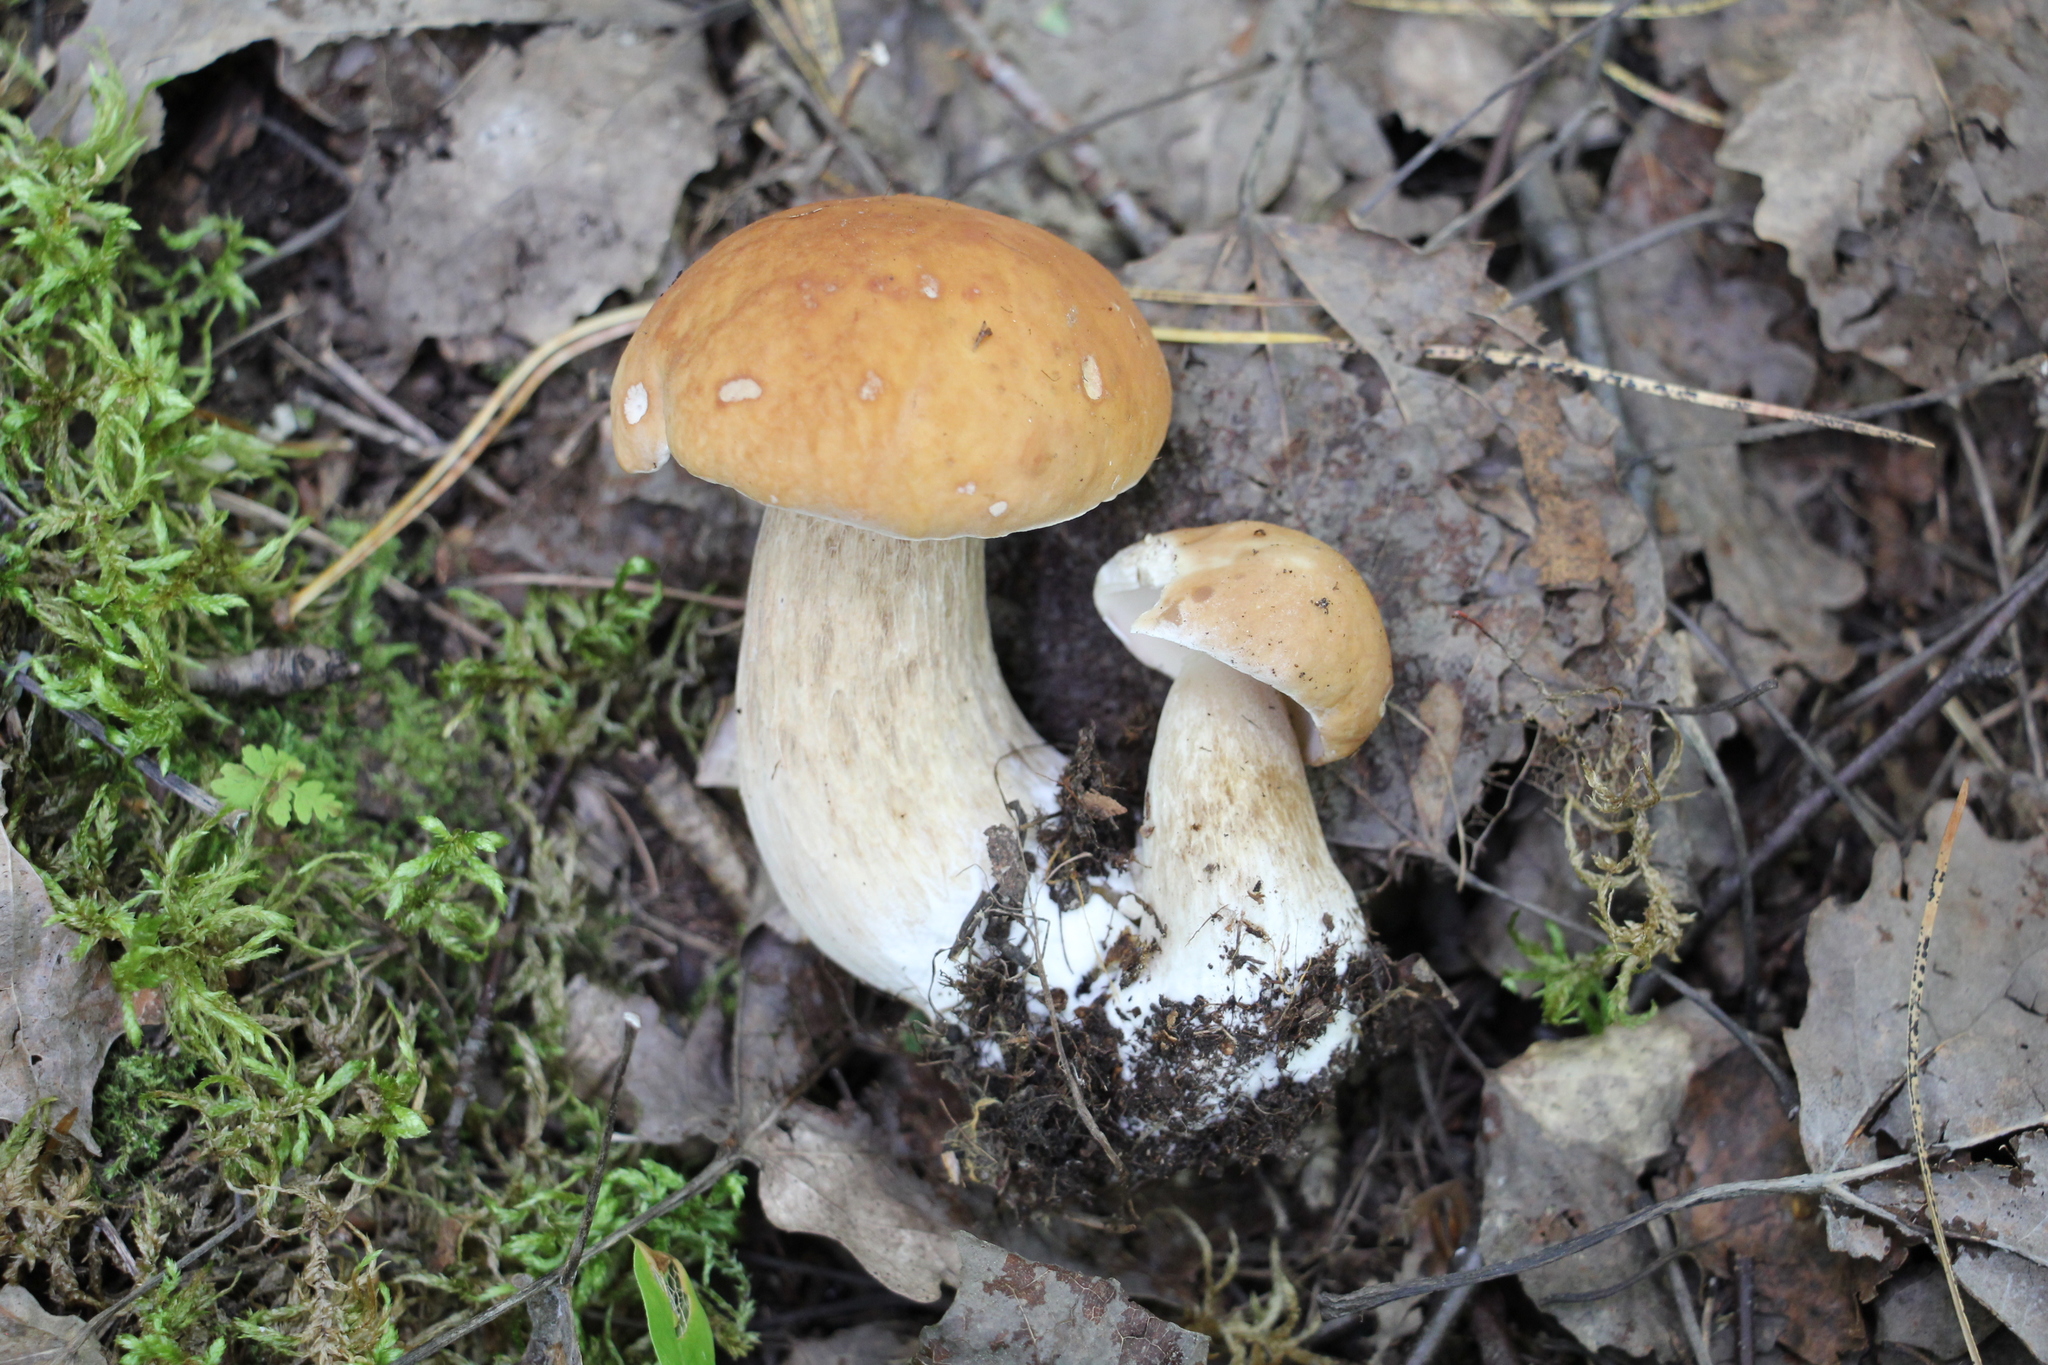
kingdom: Fungi
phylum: Basidiomycota
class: Agaricomycetes
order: Boletales
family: Boletaceae
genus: Boletus
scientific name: Boletus edulis
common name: Cep
